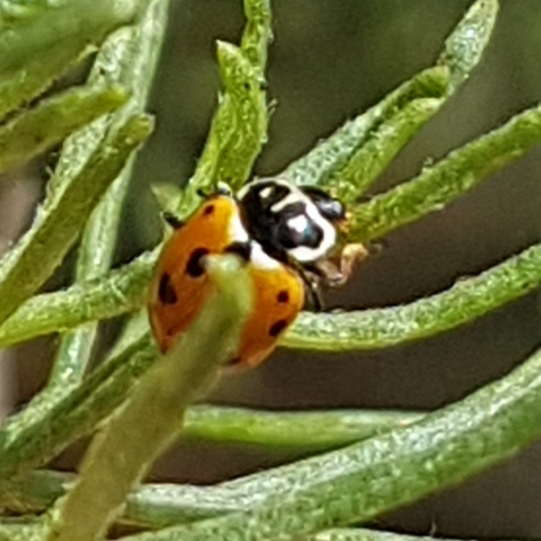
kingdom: Animalia
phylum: Arthropoda
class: Insecta
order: Coleoptera
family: Coccinellidae
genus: Hippodamia
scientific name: Hippodamia variegata
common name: Ladybird beetle
